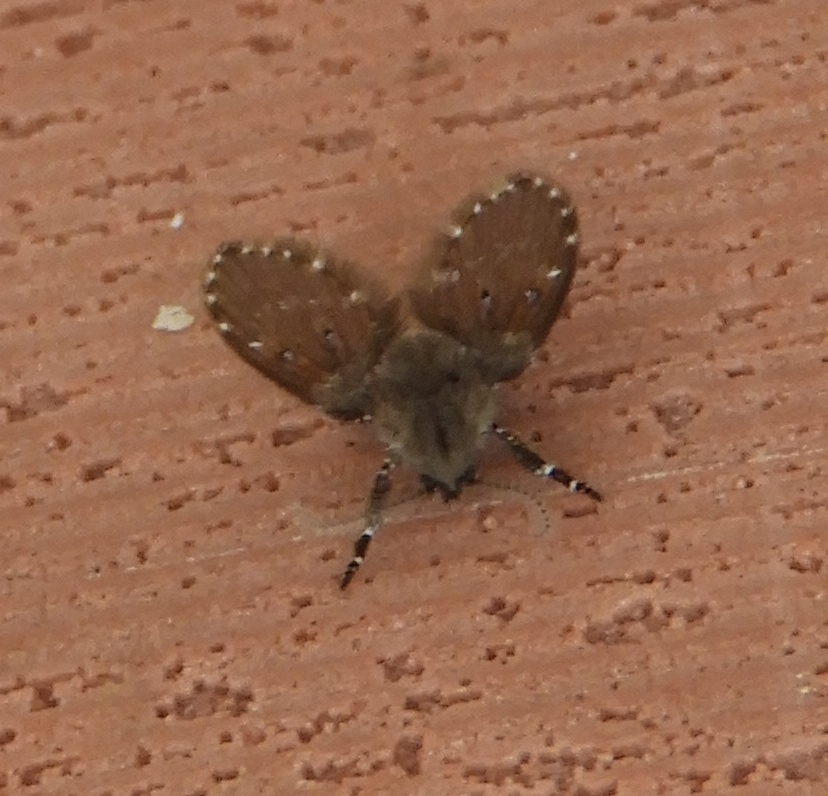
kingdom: Animalia
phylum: Arthropoda
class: Insecta
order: Diptera
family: Psychodidae
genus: Clogmia
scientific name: Clogmia albipunctatus
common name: White-spotted moth fly
